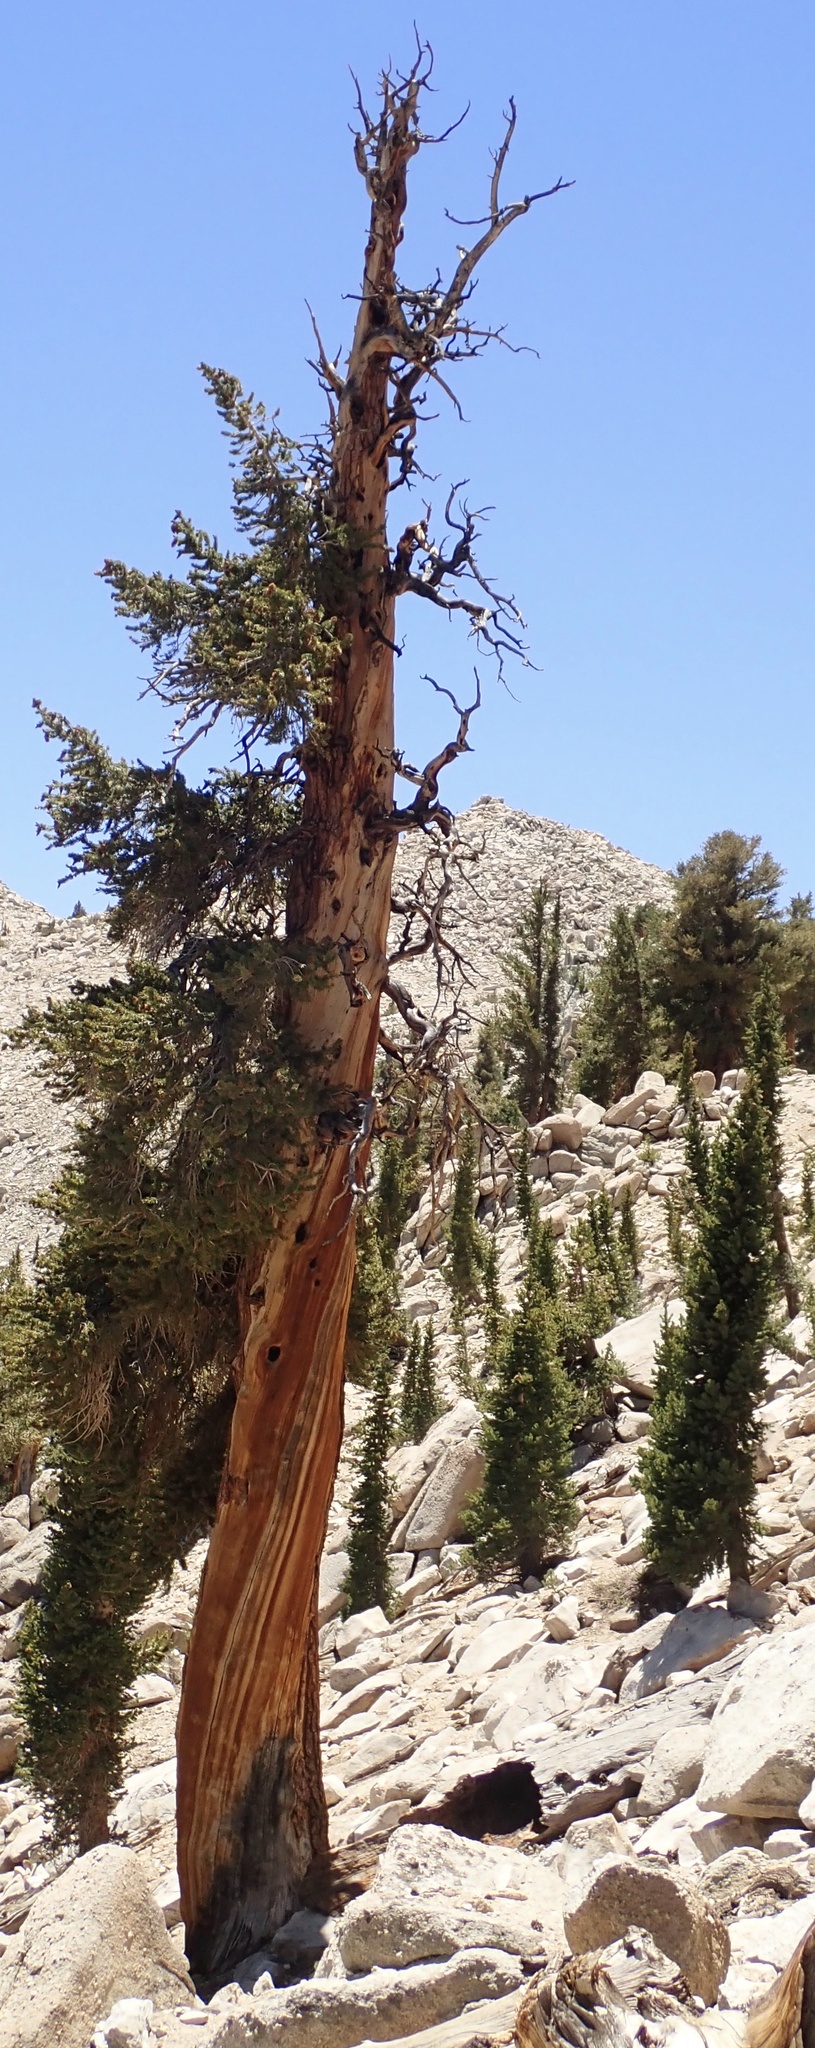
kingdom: Plantae
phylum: Tracheophyta
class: Pinopsida
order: Pinales
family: Pinaceae
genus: Pinus
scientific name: Pinus balfouriana
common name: Foxtail pine
